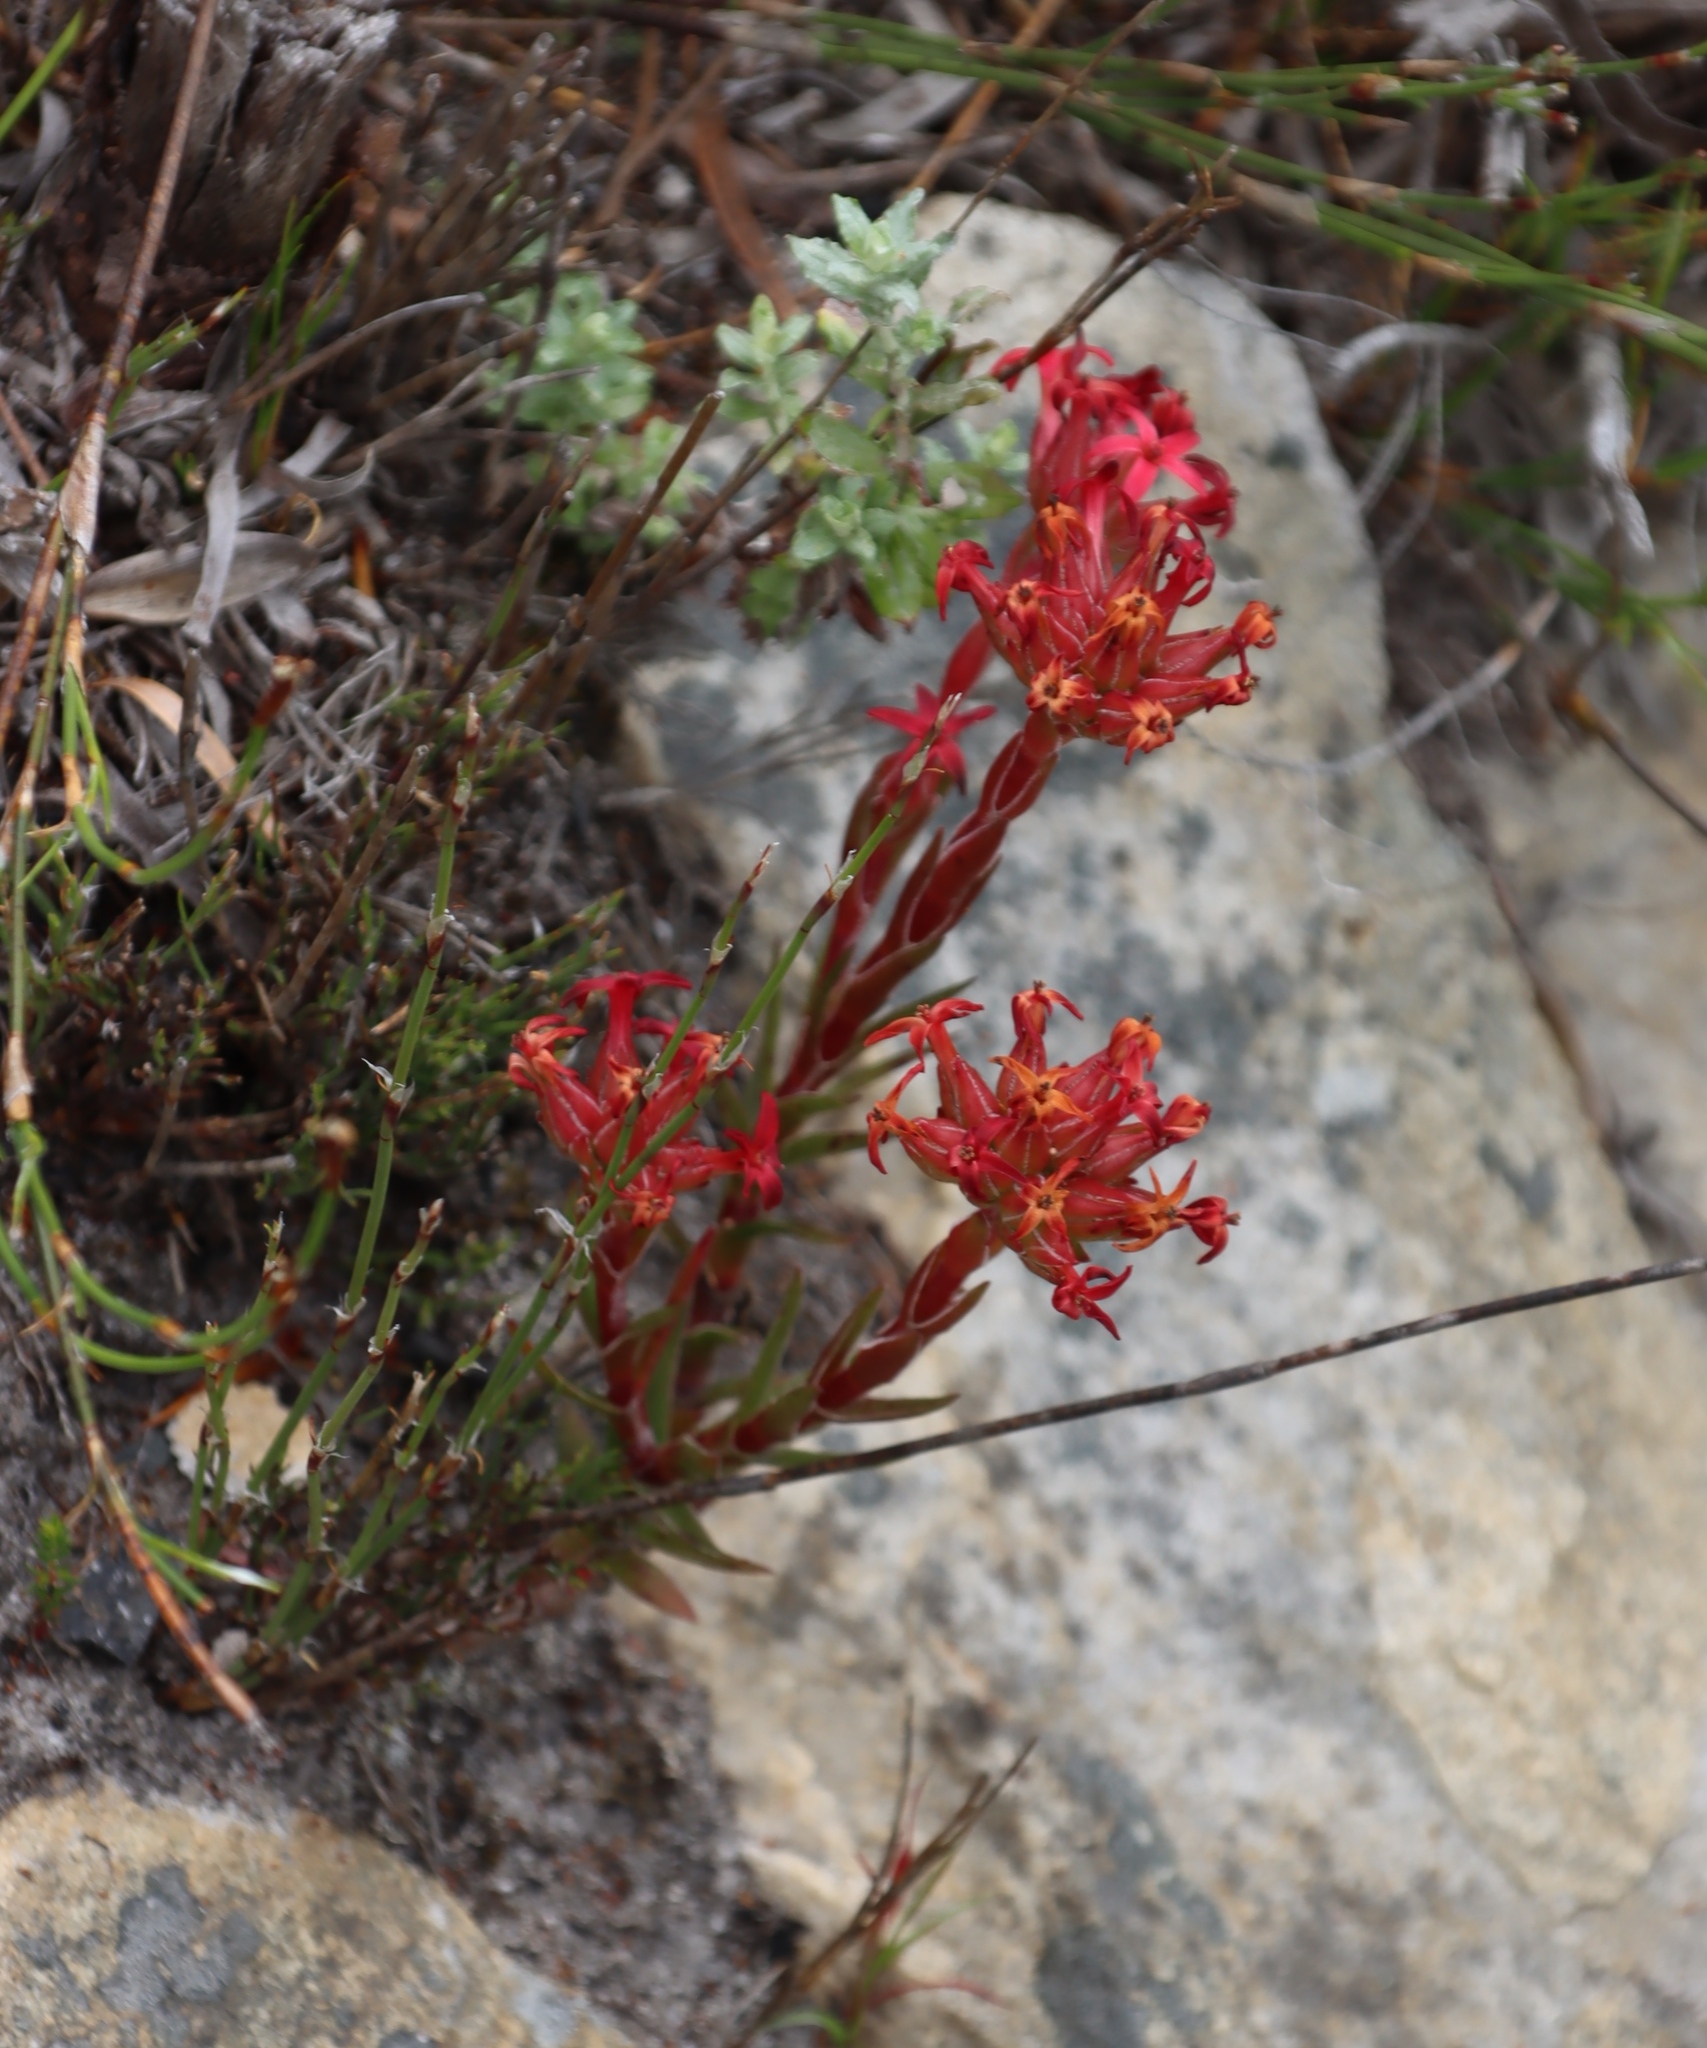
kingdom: Plantae
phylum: Tracheophyta
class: Magnoliopsida
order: Saxifragales
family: Crassulaceae
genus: Crassula
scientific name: Crassula fascicularis
